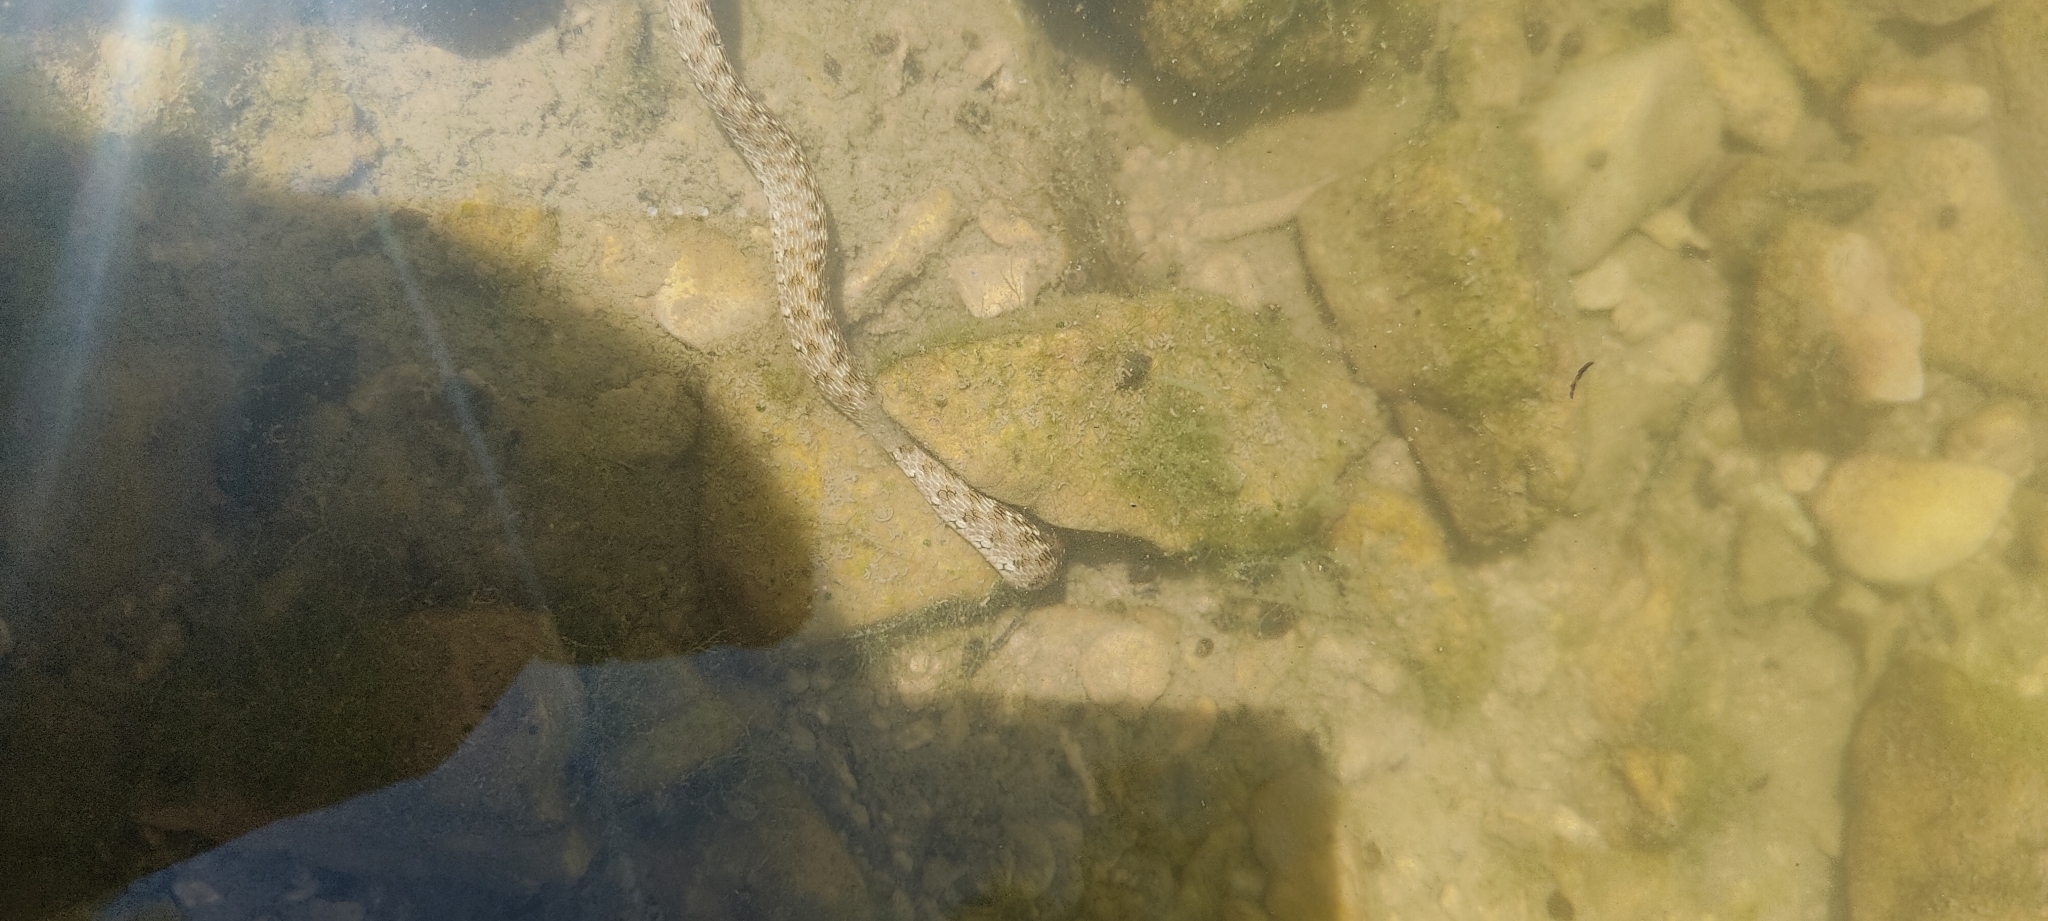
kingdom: Animalia
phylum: Chordata
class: Squamata
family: Colubridae
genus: Natrix
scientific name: Natrix maura
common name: Viperine water snake
